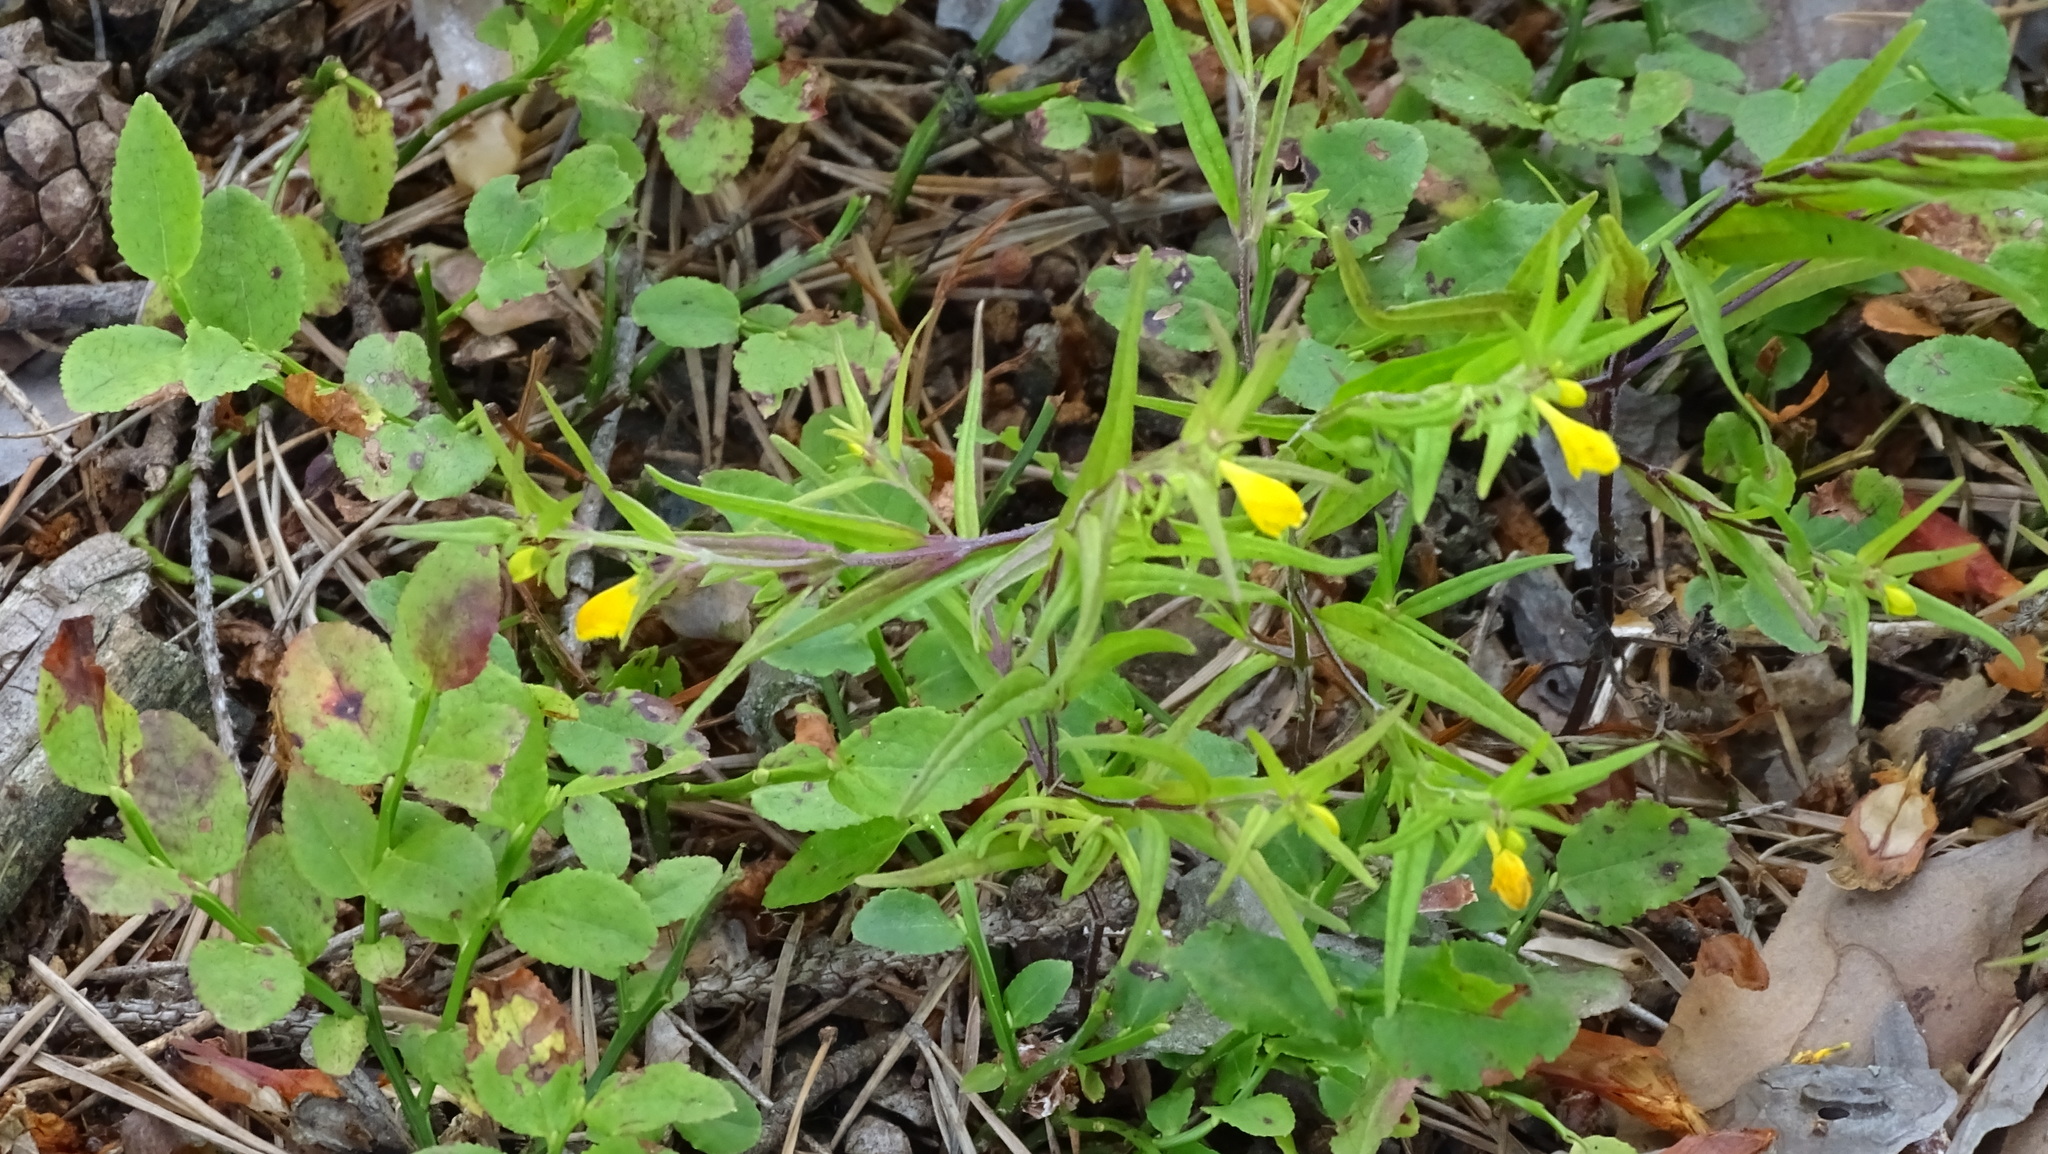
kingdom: Plantae
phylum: Tracheophyta
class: Magnoliopsida
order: Lamiales
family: Orobanchaceae
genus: Melampyrum
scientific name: Melampyrum sylvaticum
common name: Small cow-wheat
